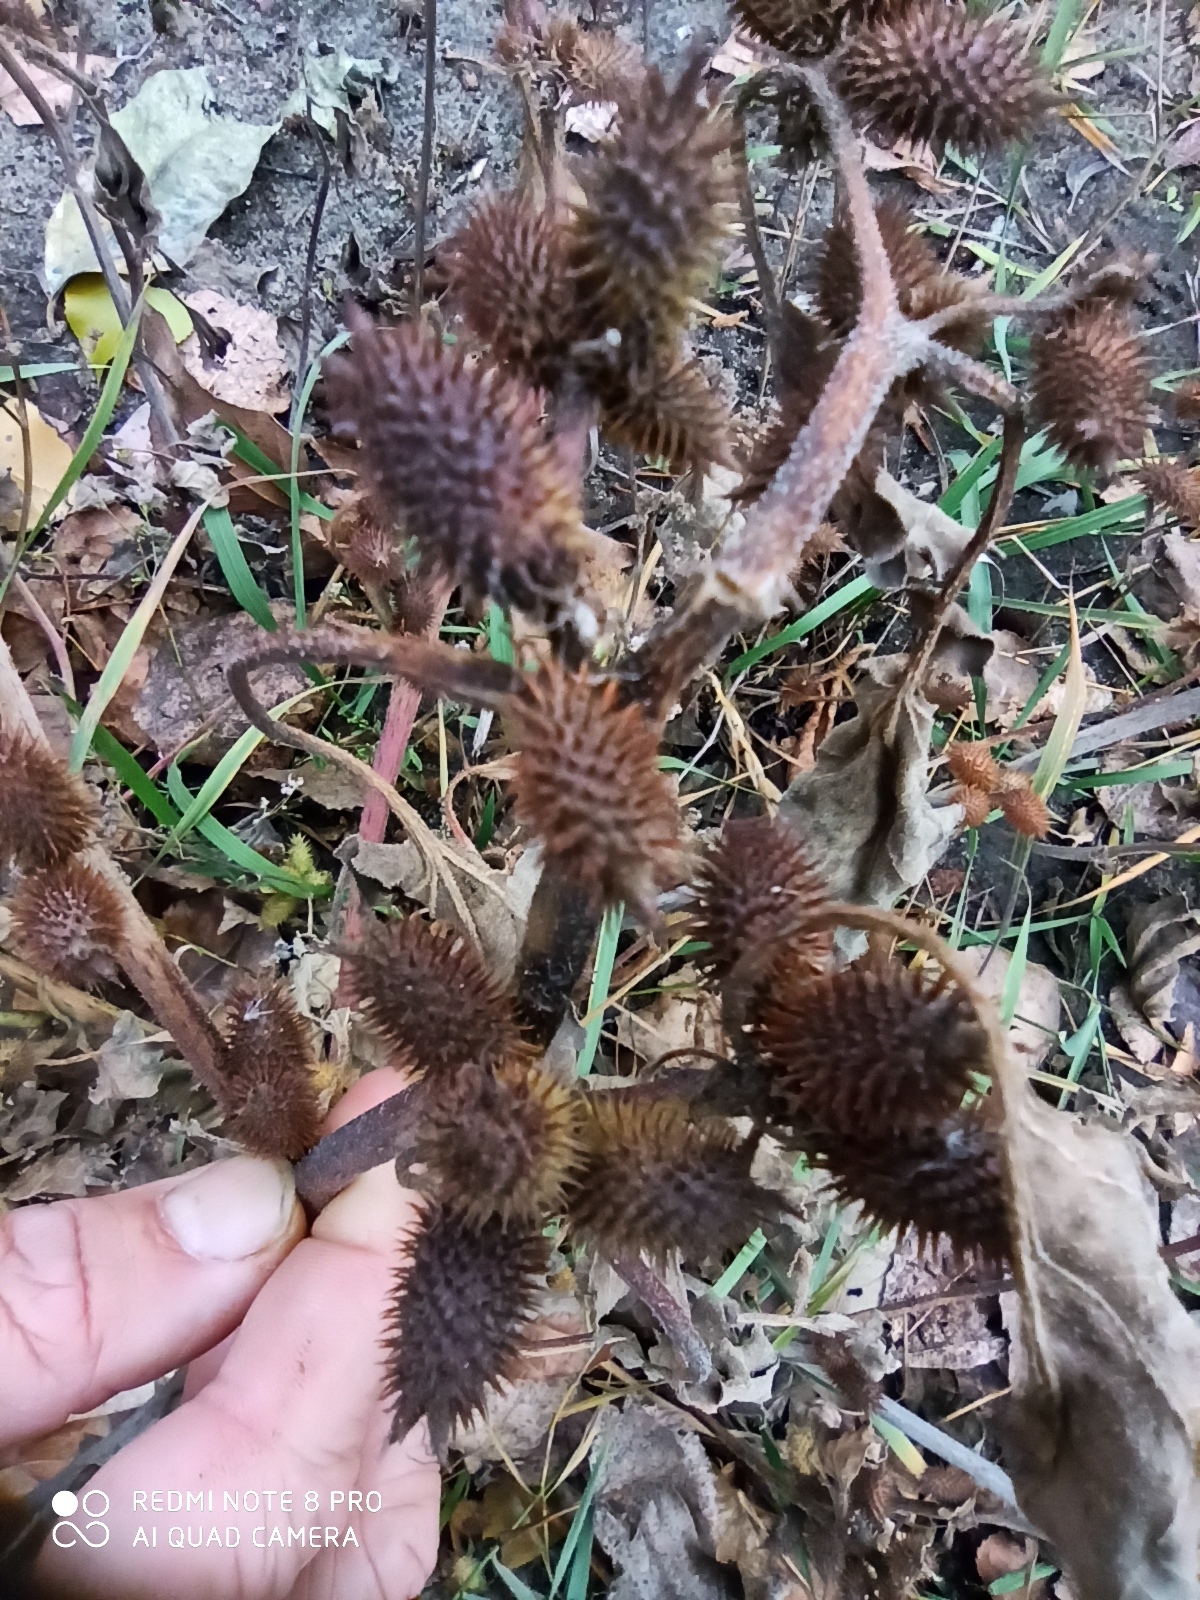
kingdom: Plantae
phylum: Tracheophyta
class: Magnoliopsida
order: Asterales
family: Asteraceae
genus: Xanthium
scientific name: Xanthium orientale
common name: Californian burr
